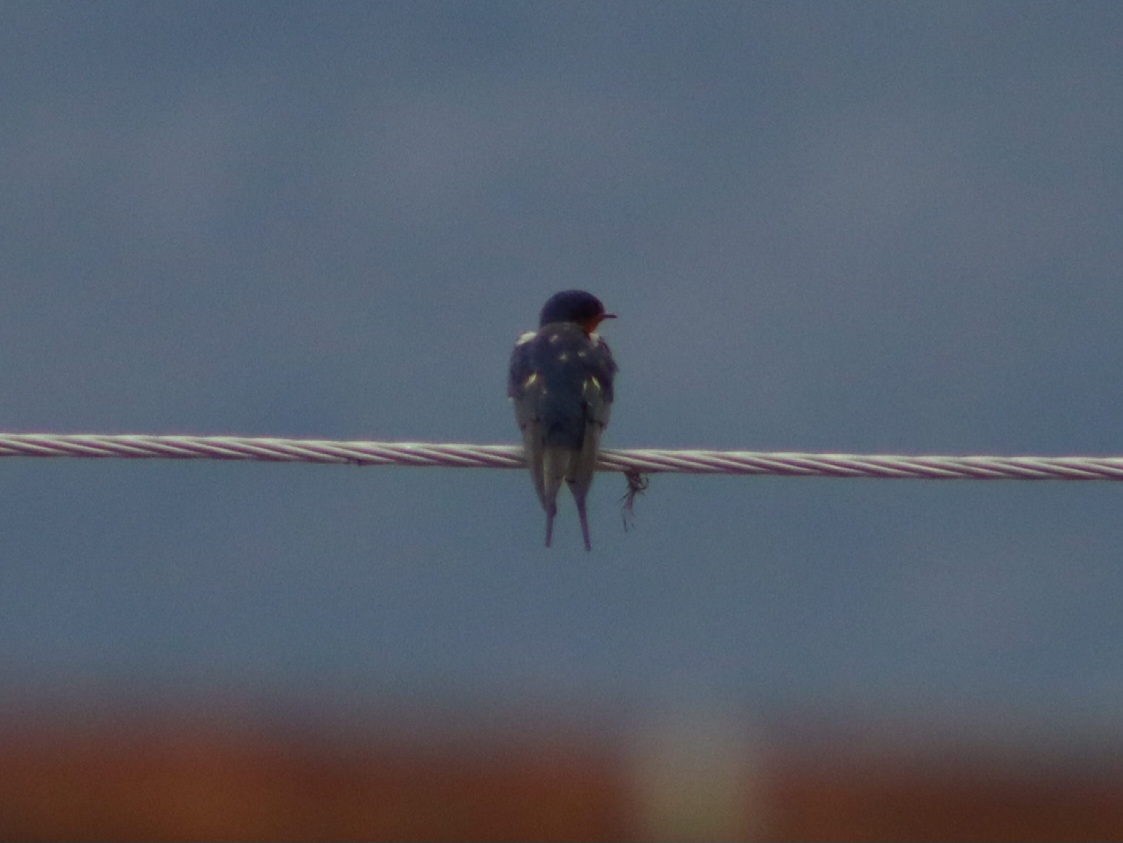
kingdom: Animalia
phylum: Chordata
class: Aves
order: Passeriformes
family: Hirundinidae
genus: Hirundo
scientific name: Hirundo rustica
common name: Barn swallow
